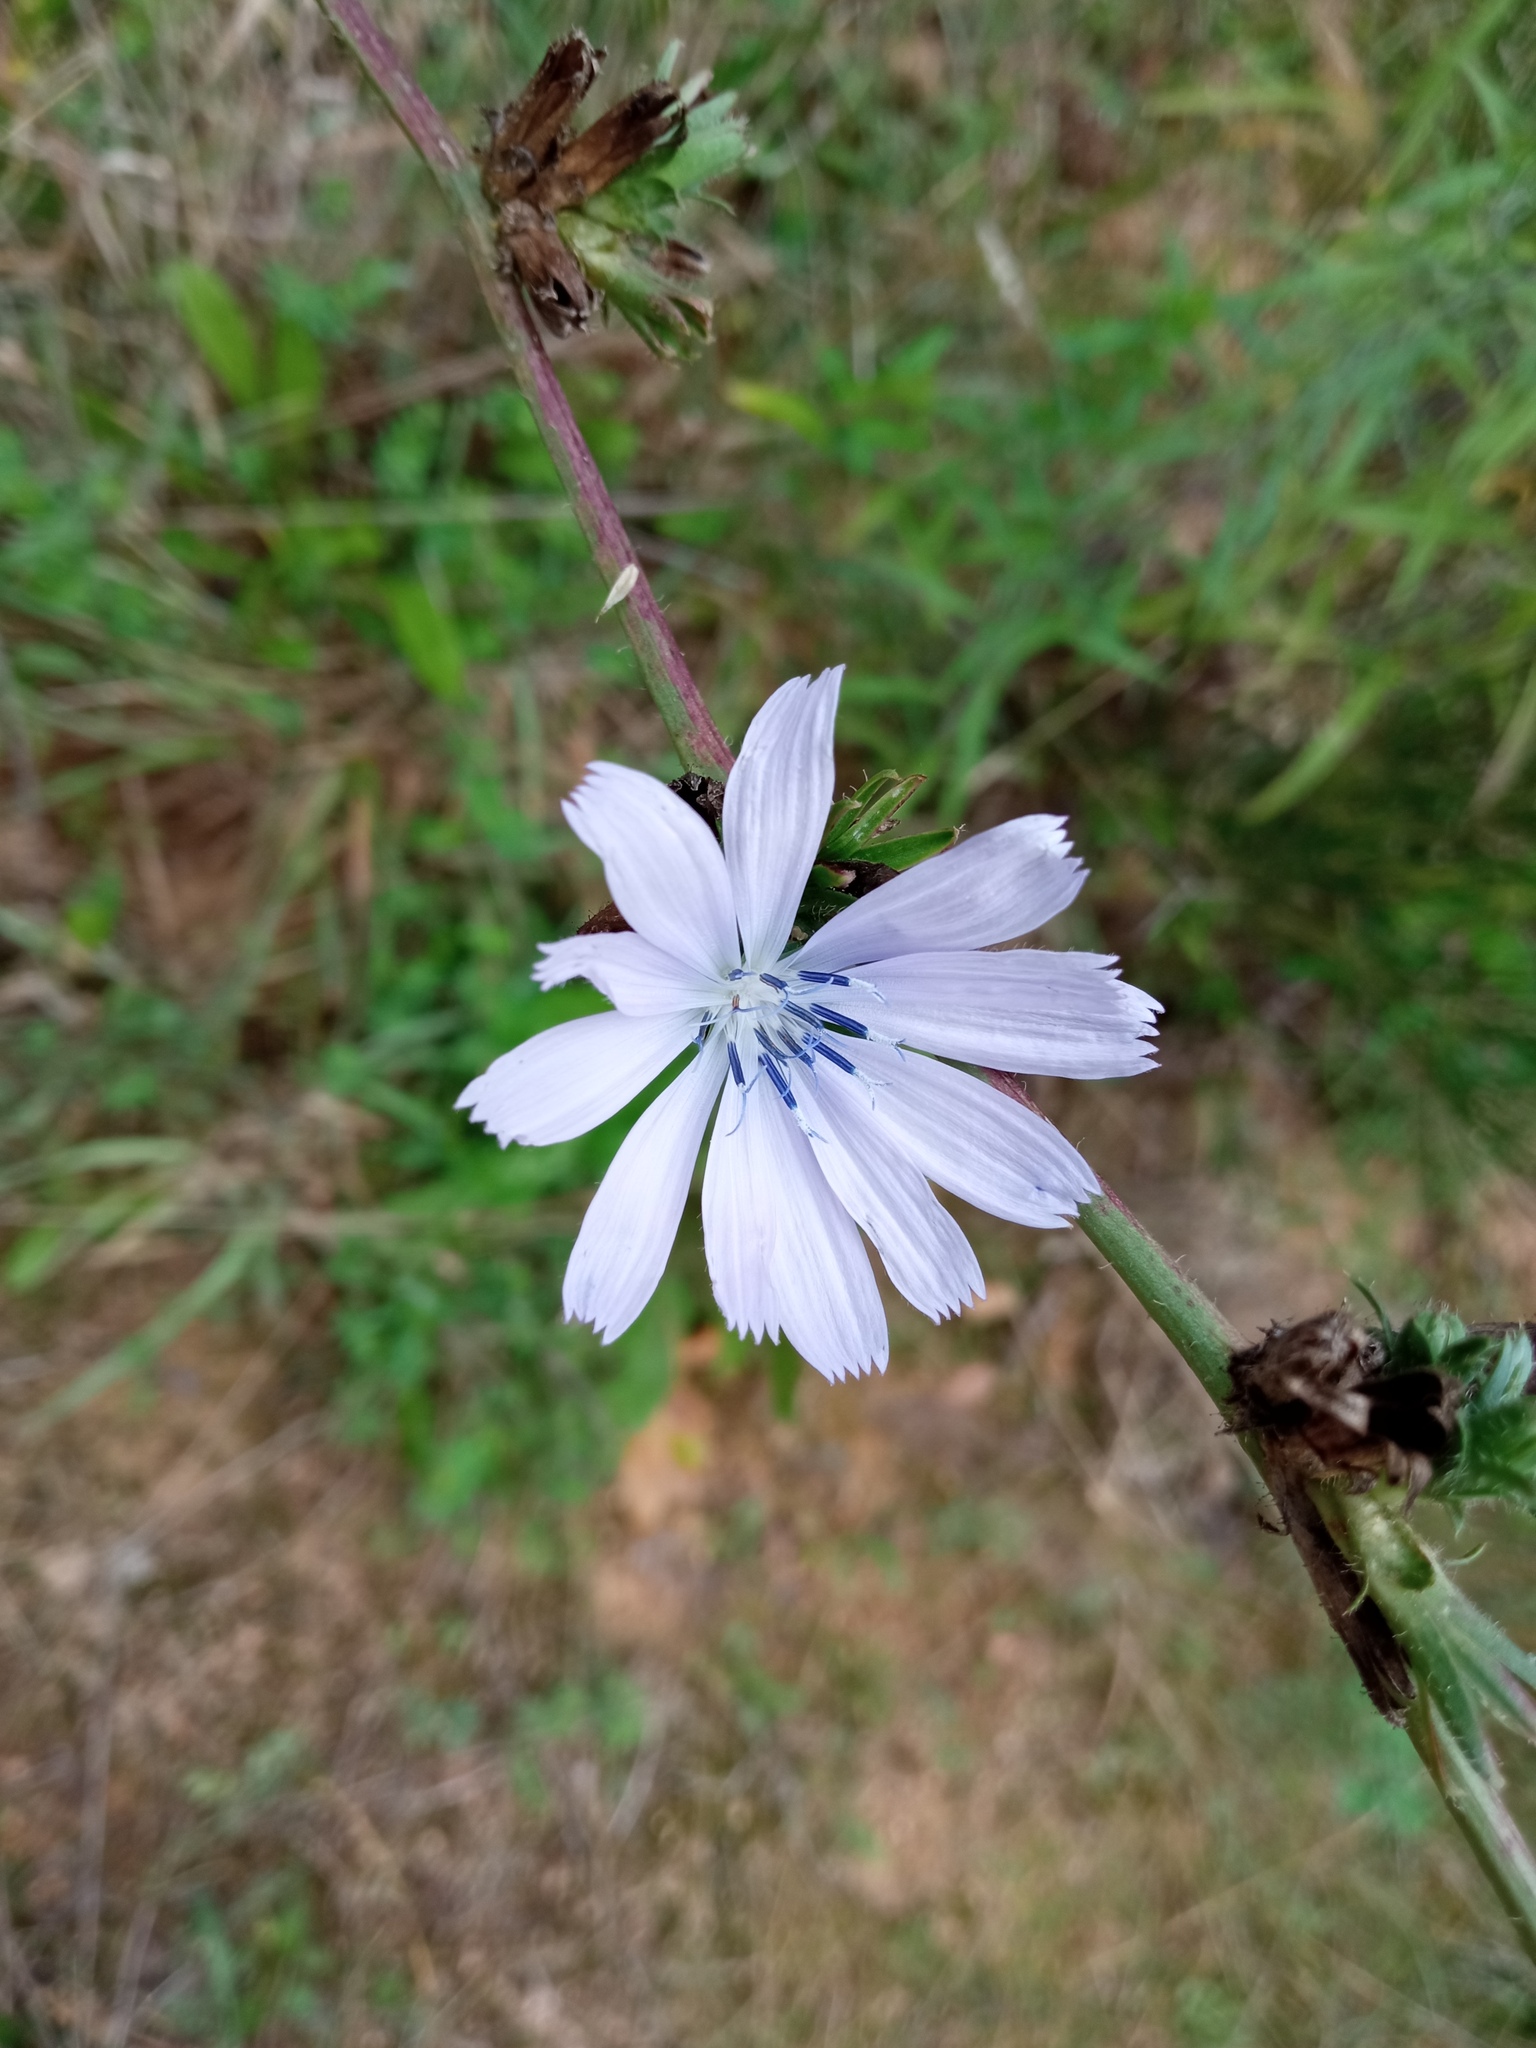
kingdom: Plantae
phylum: Tracheophyta
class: Magnoliopsida
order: Asterales
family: Asteraceae
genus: Cichorium
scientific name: Cichorium intybus
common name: Chicory
